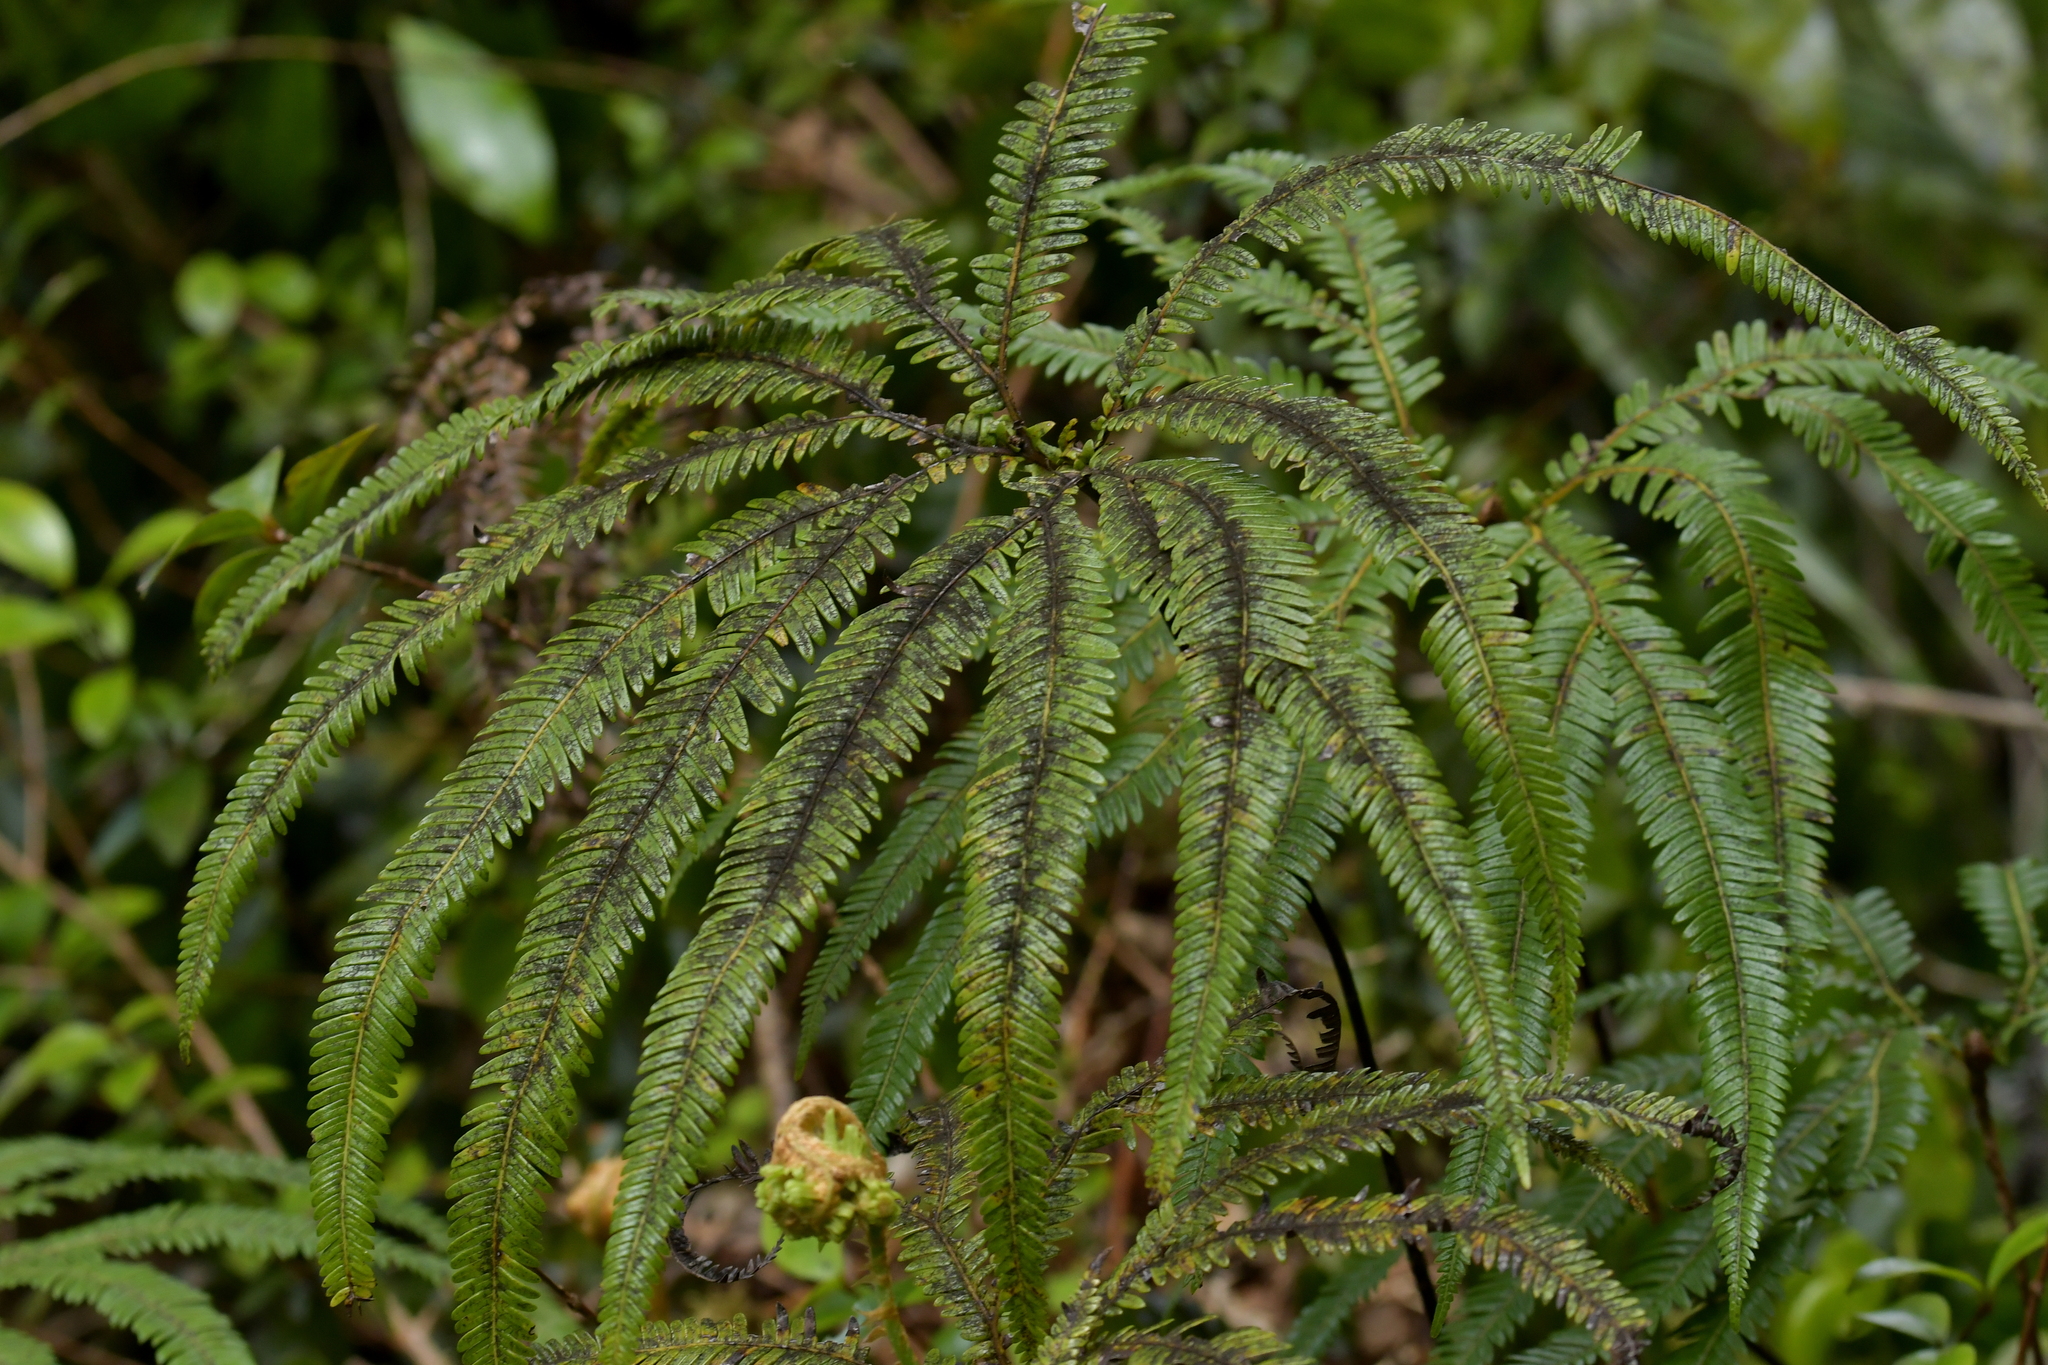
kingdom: Plantae
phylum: Tracheophyta
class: Polypodiopsida
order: Gleicheniales
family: Gleicheniaceae
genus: Sticherus
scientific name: Sticherus cunninghamii
